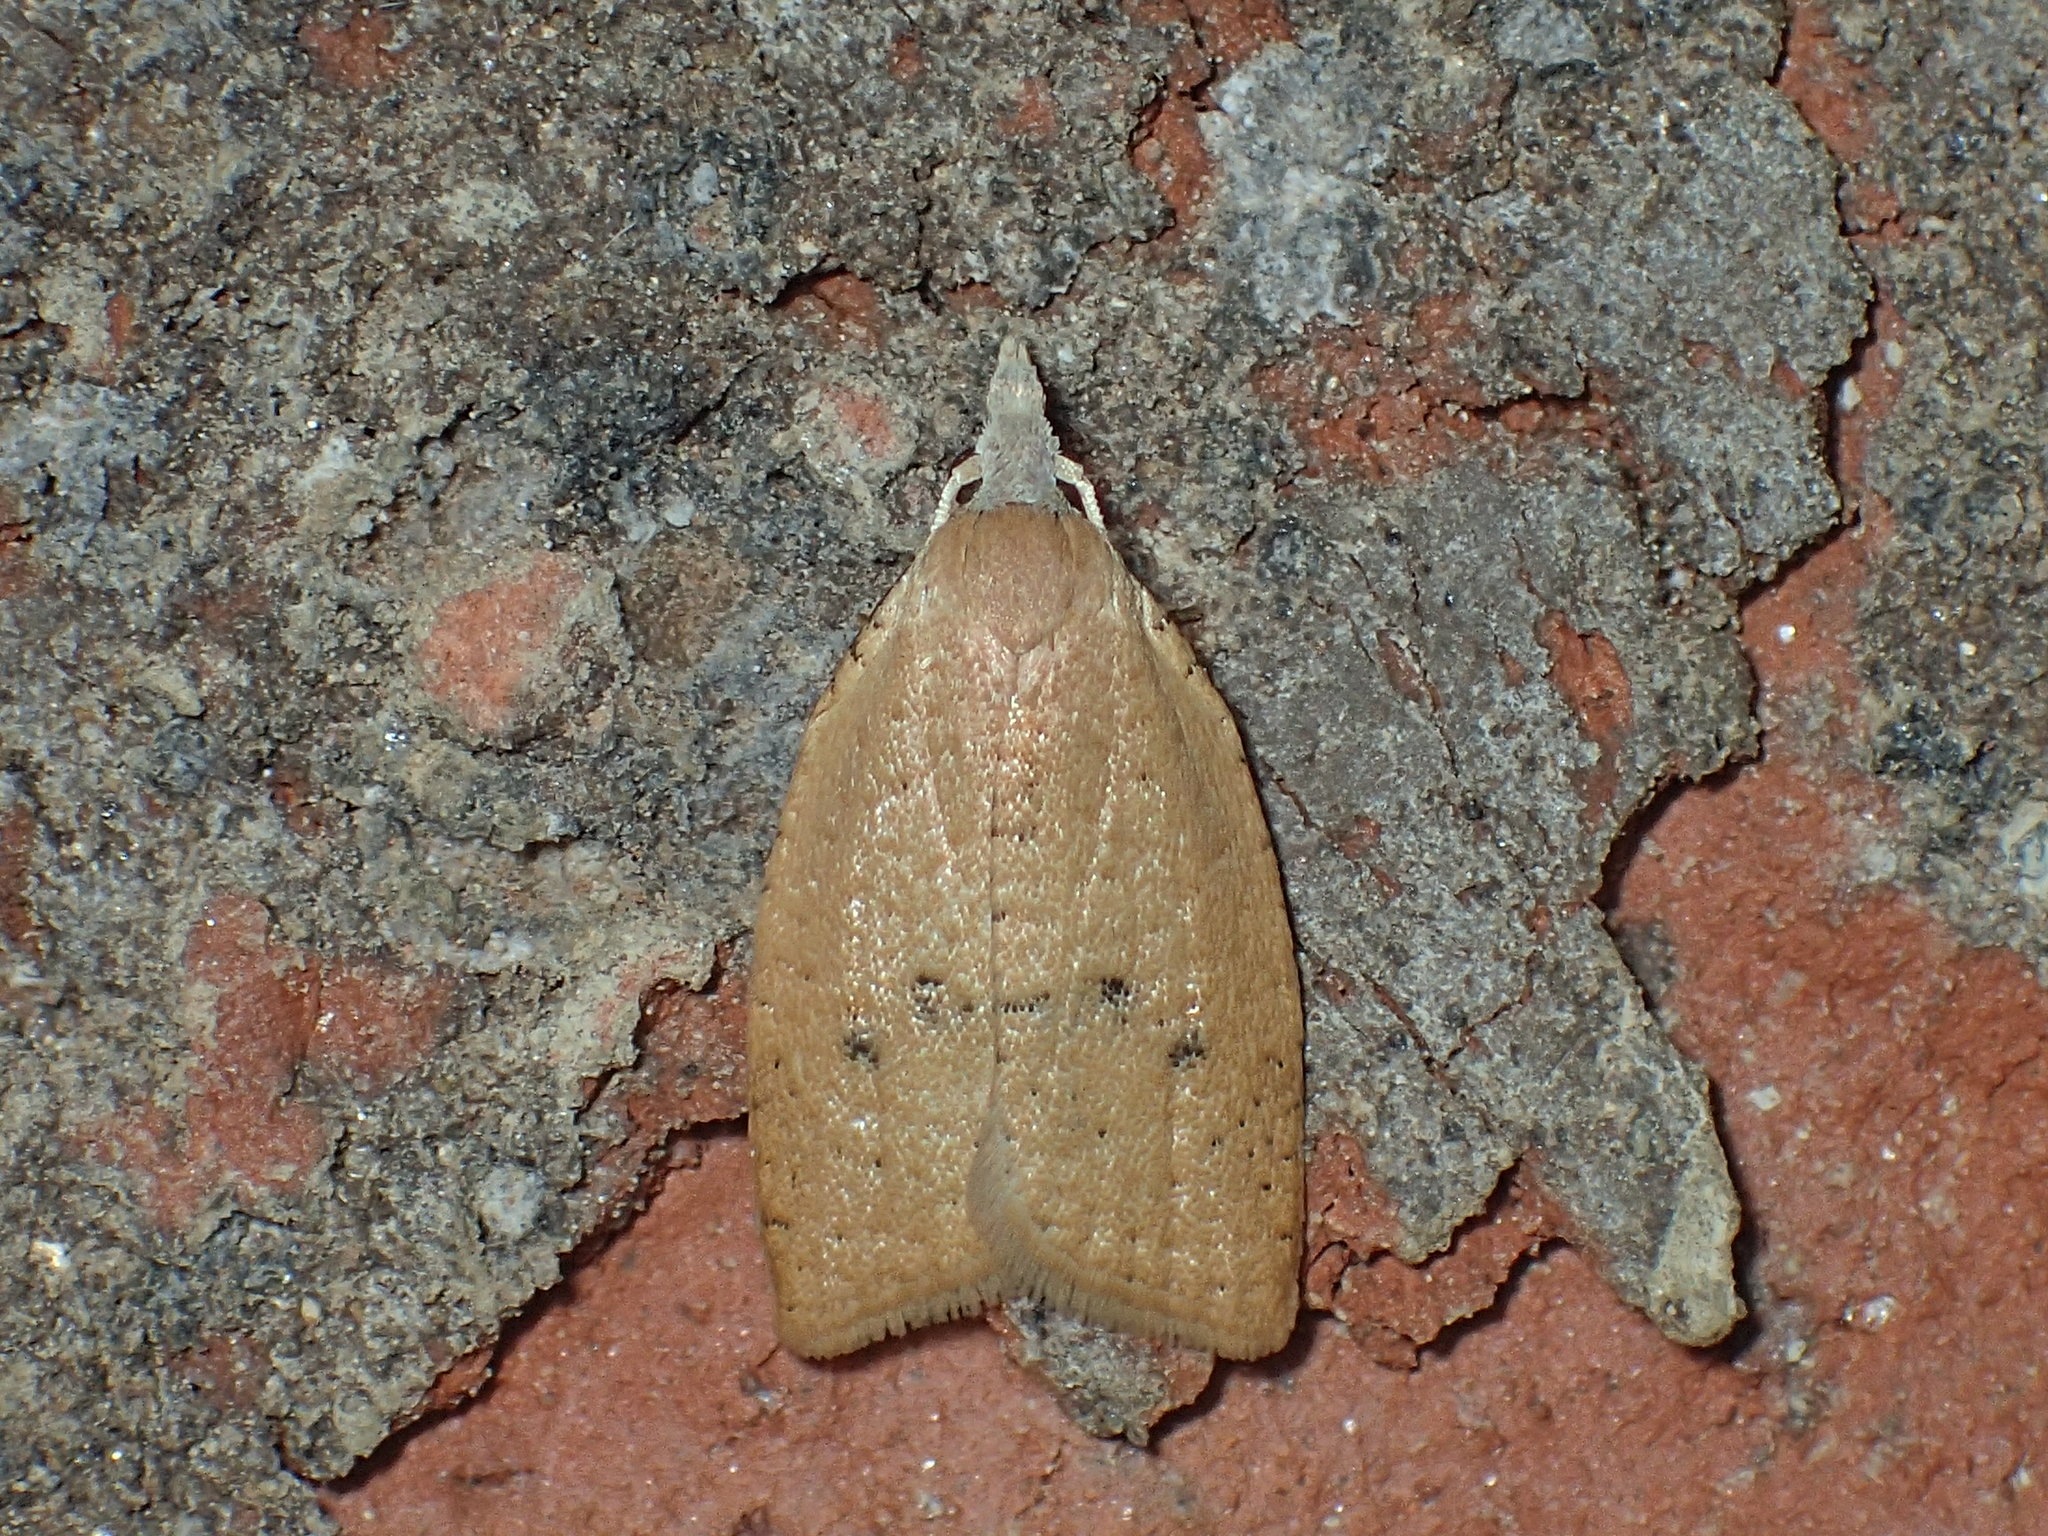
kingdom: Animalia
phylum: Arthropoda
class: Insecta
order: Lepidoptera
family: Tortricidae
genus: Sparganothoides
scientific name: Sparganothoides lentiginosana
